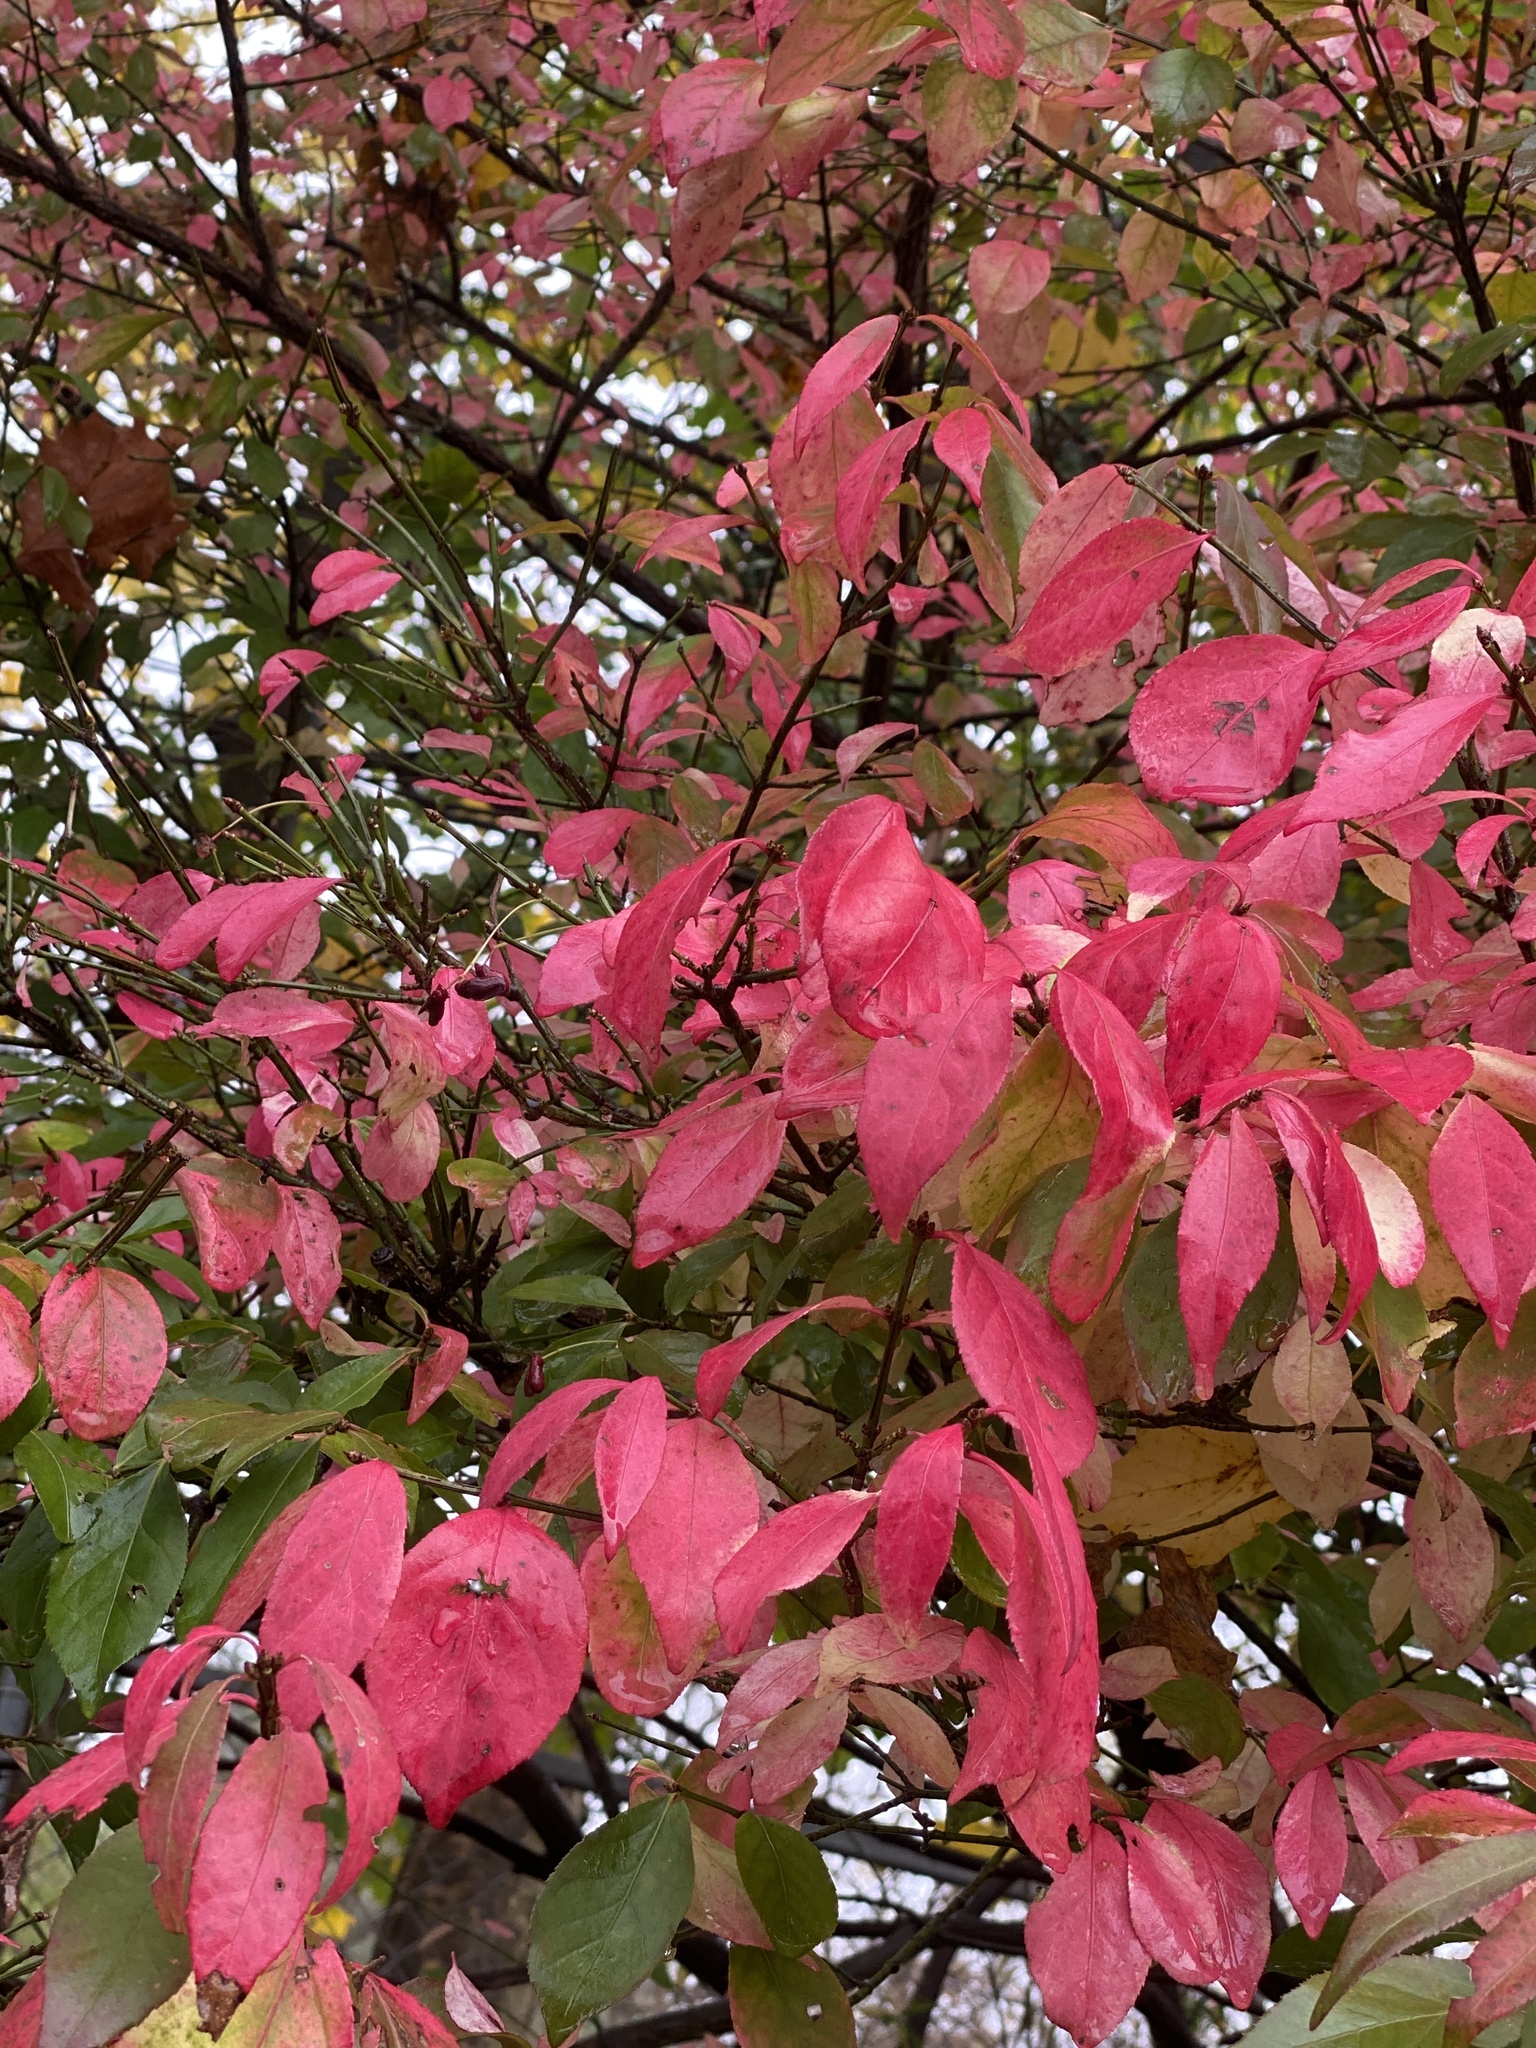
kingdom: Plantae
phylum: Tracheophyta
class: Magnoliopsida
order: Celastrales
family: Celastraceae
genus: Euonymus
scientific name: Euonymus alatus
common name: Winged euonymus
